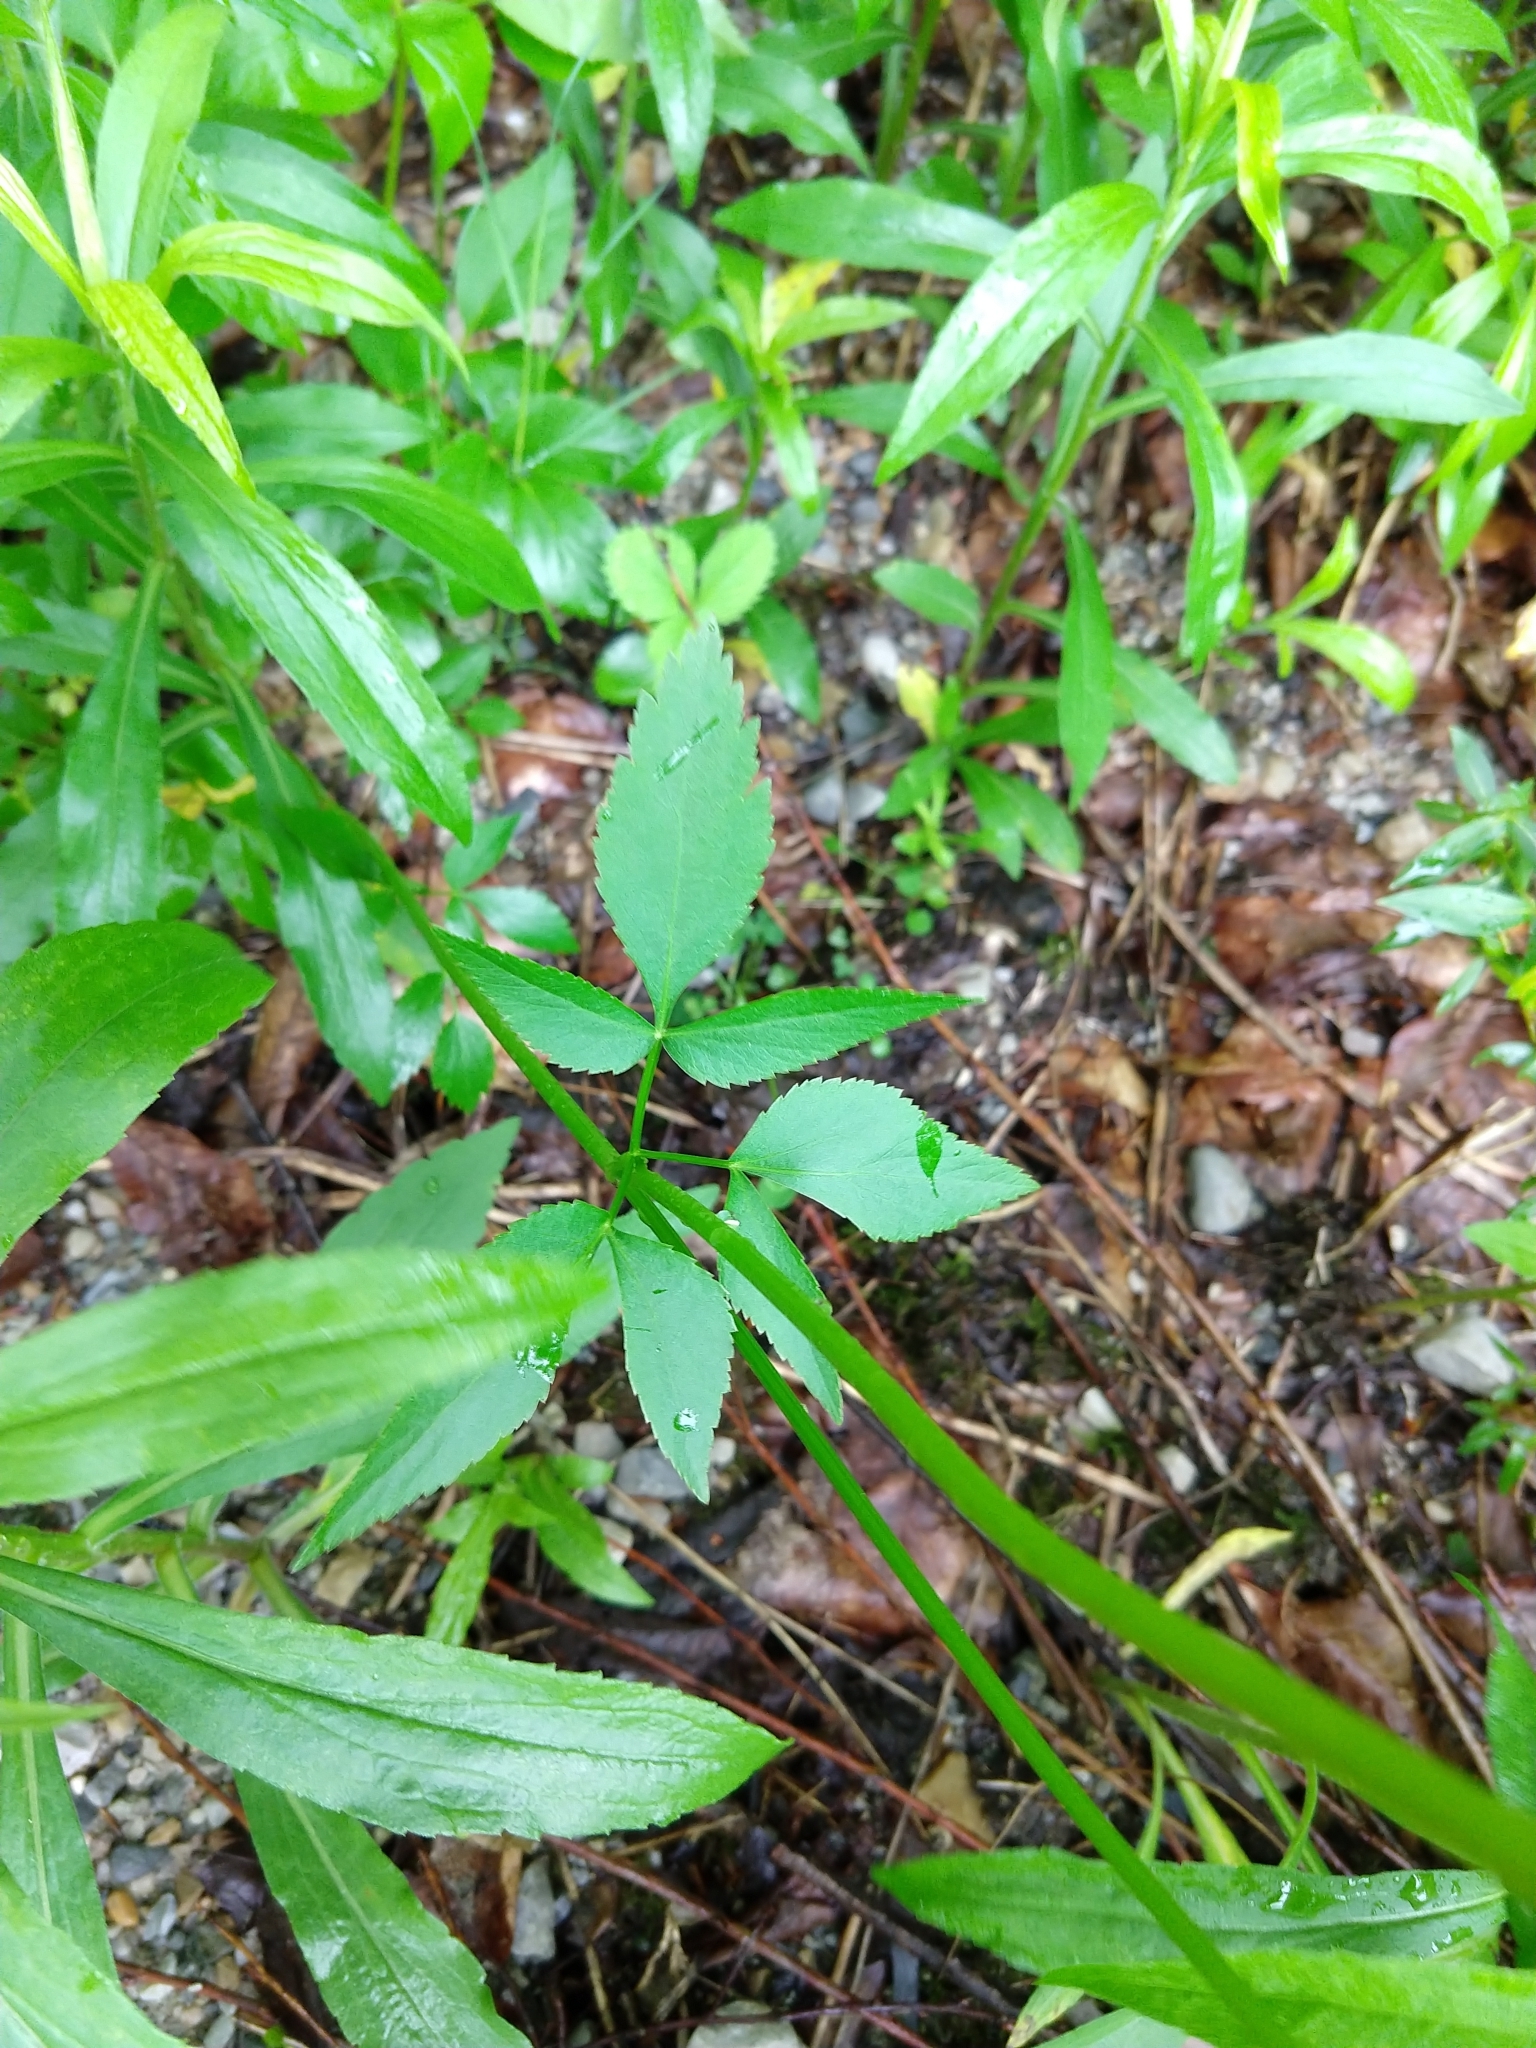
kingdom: Plantae
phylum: Tracheophyta
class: Magnoliopsida
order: Apiales
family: Apiaceae
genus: Zizia
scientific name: Zizia aurea
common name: Golden alexanders
